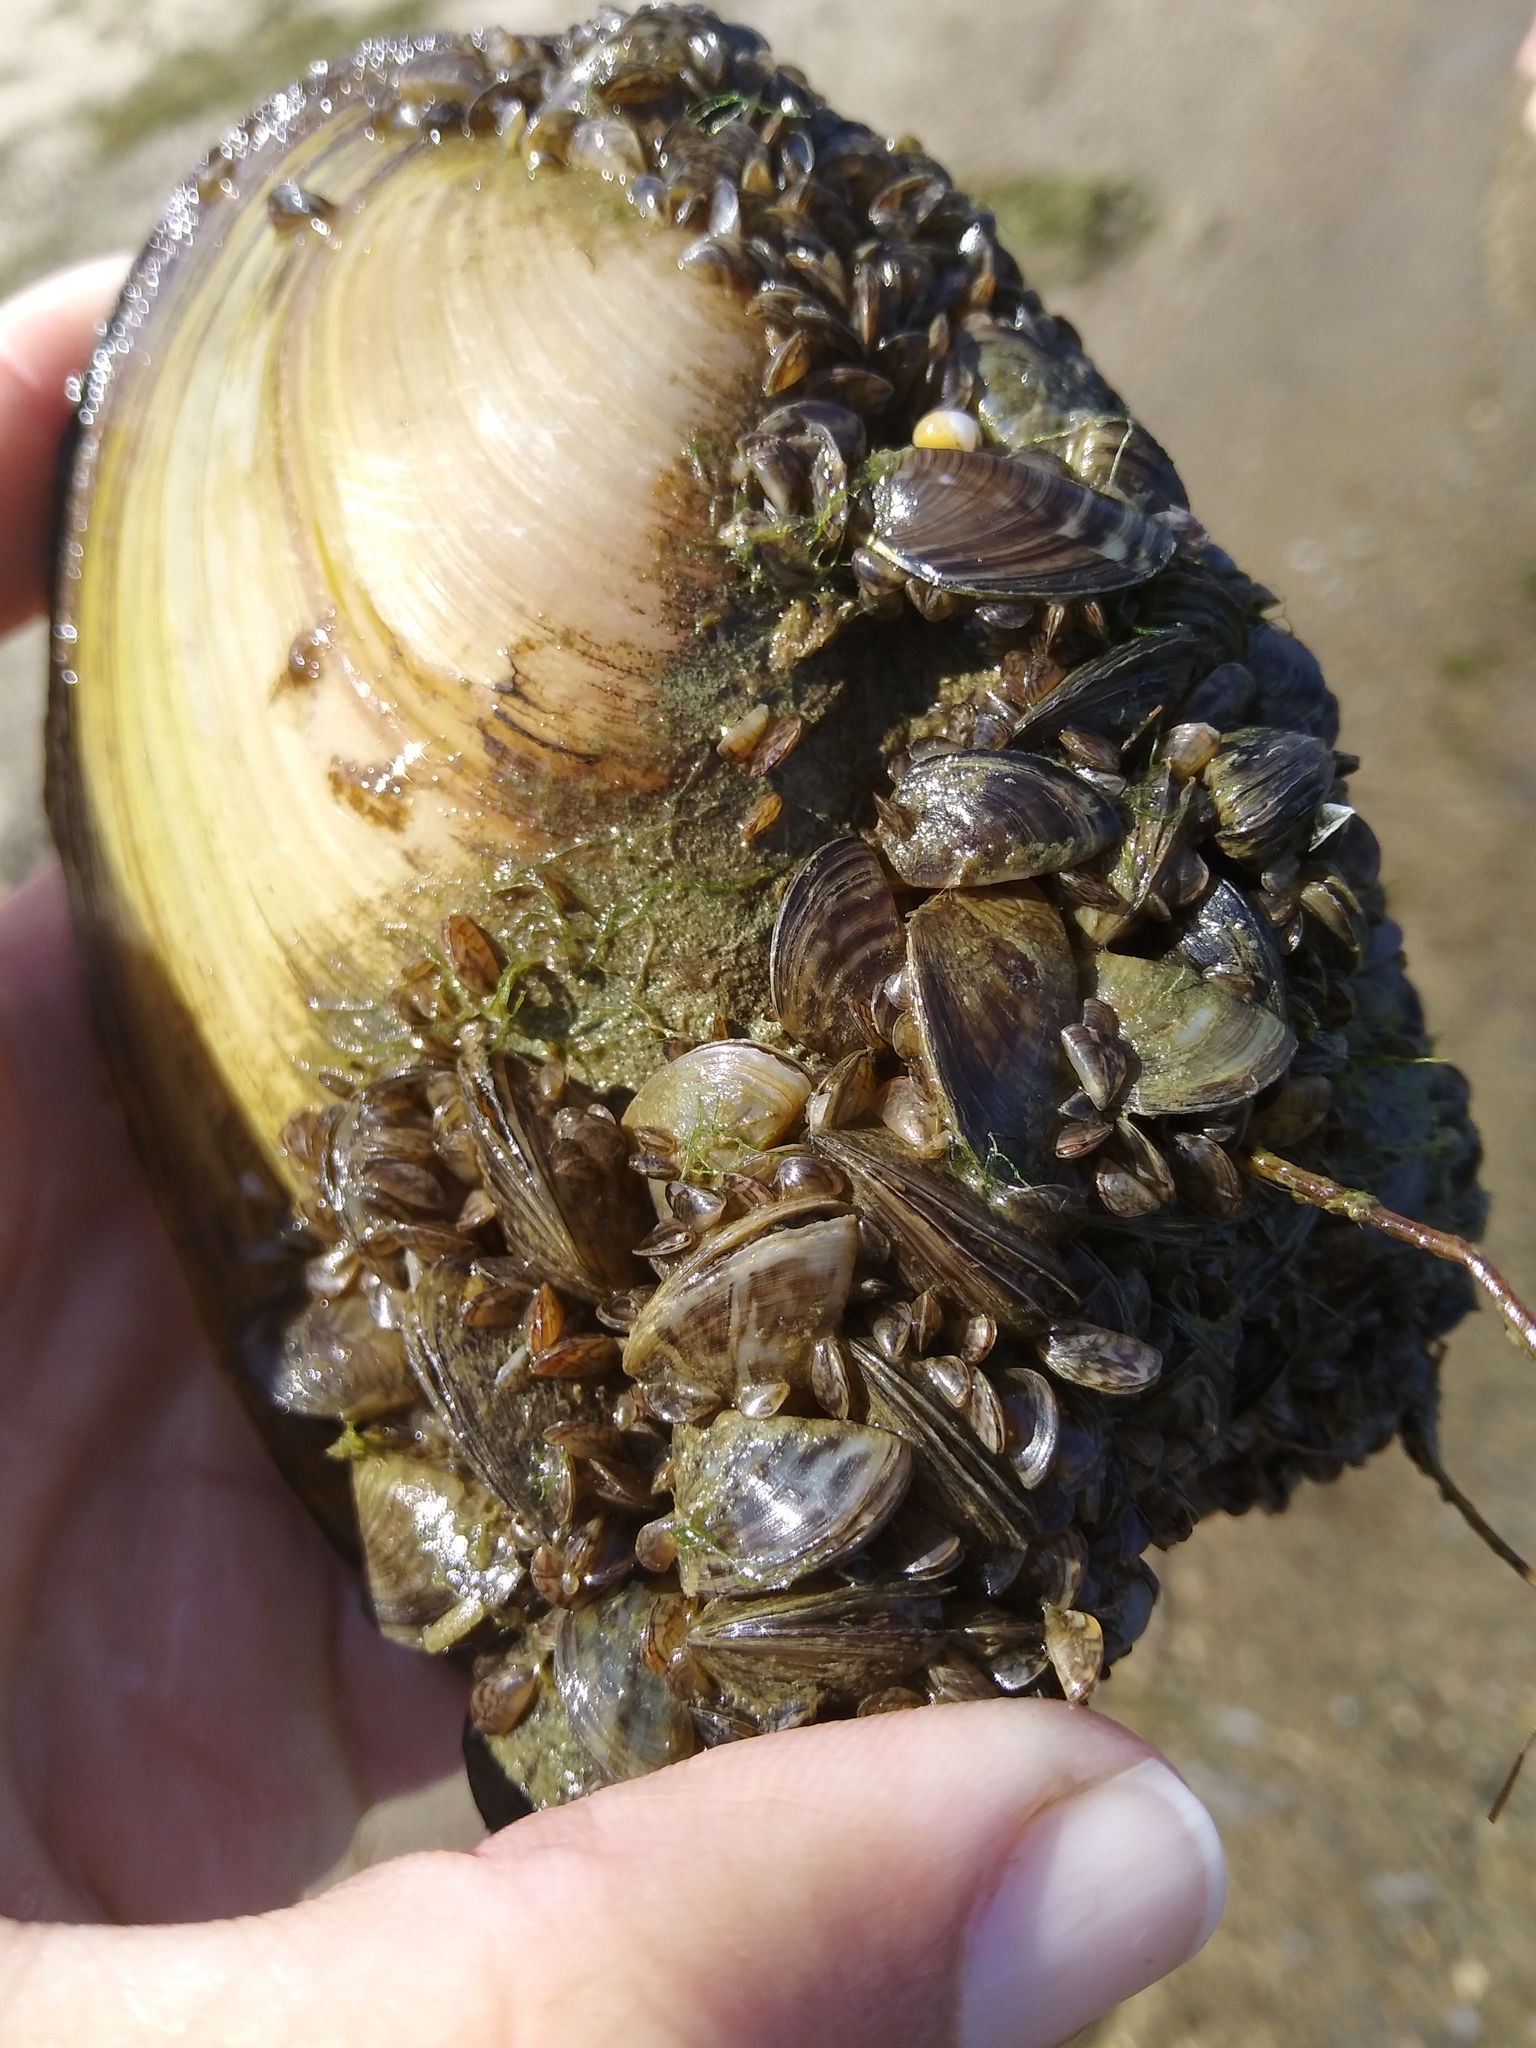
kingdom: Animalia
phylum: Mollusca
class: Bivalvia
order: Myida
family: Dreissenidae
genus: Dreissena
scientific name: Dreissena polymorpha
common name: Zebra mussel
